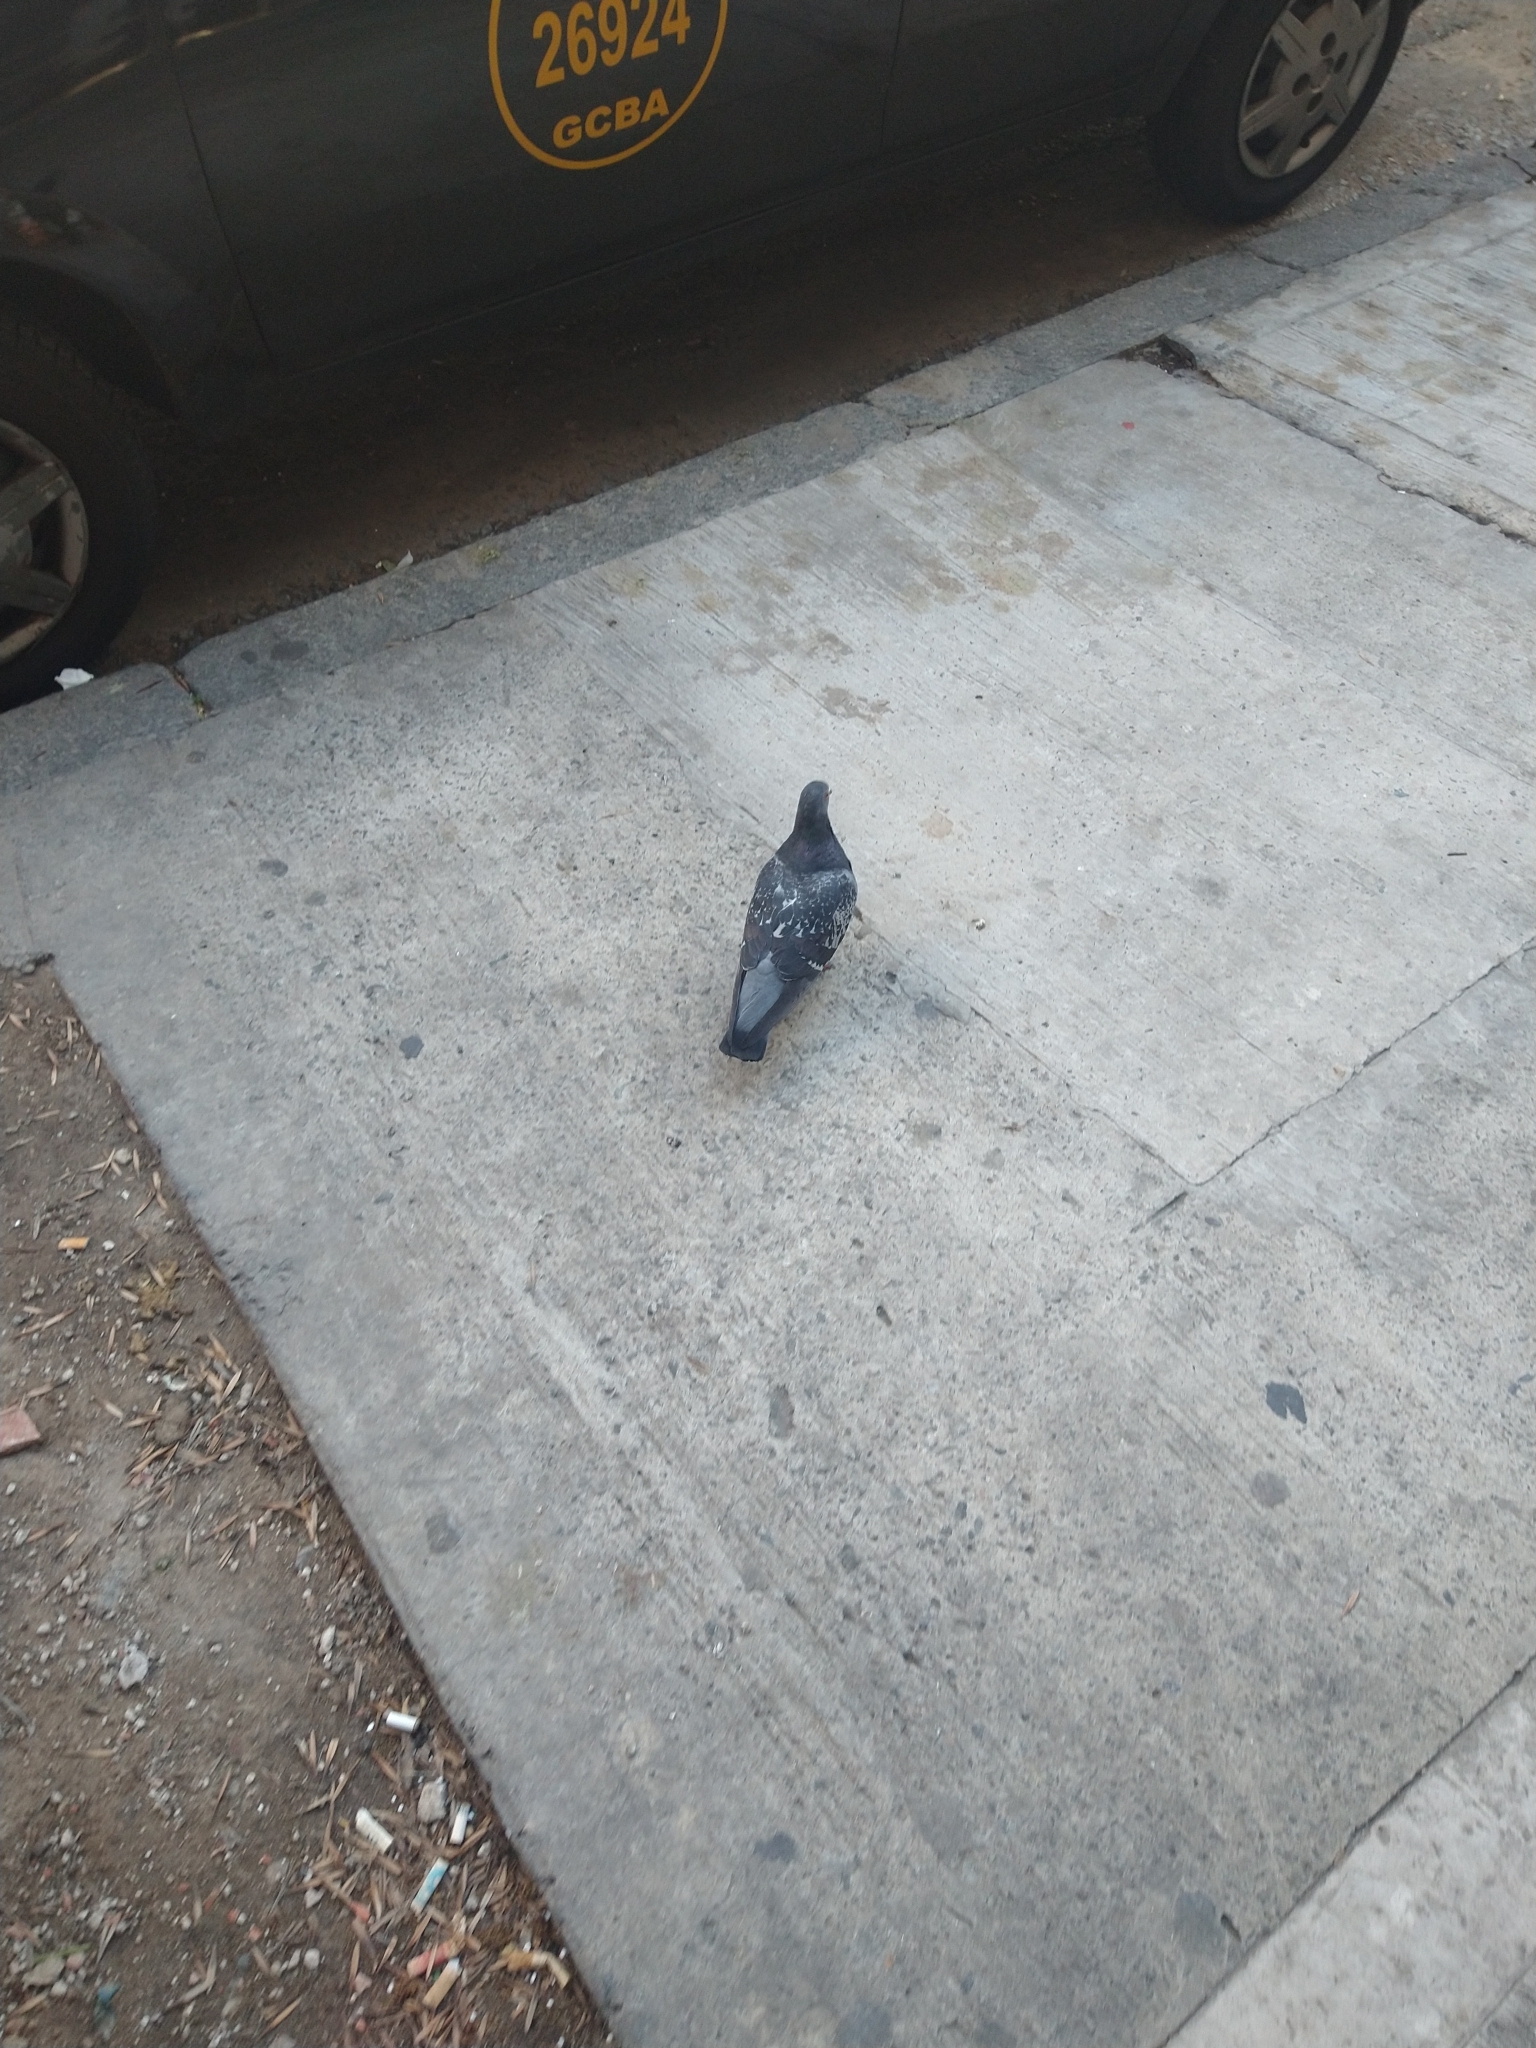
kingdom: Animalia
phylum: Chordata
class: Aves
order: Columbiformes
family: Columbidae
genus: Columba
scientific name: Columba livia
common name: Rock pigeon
